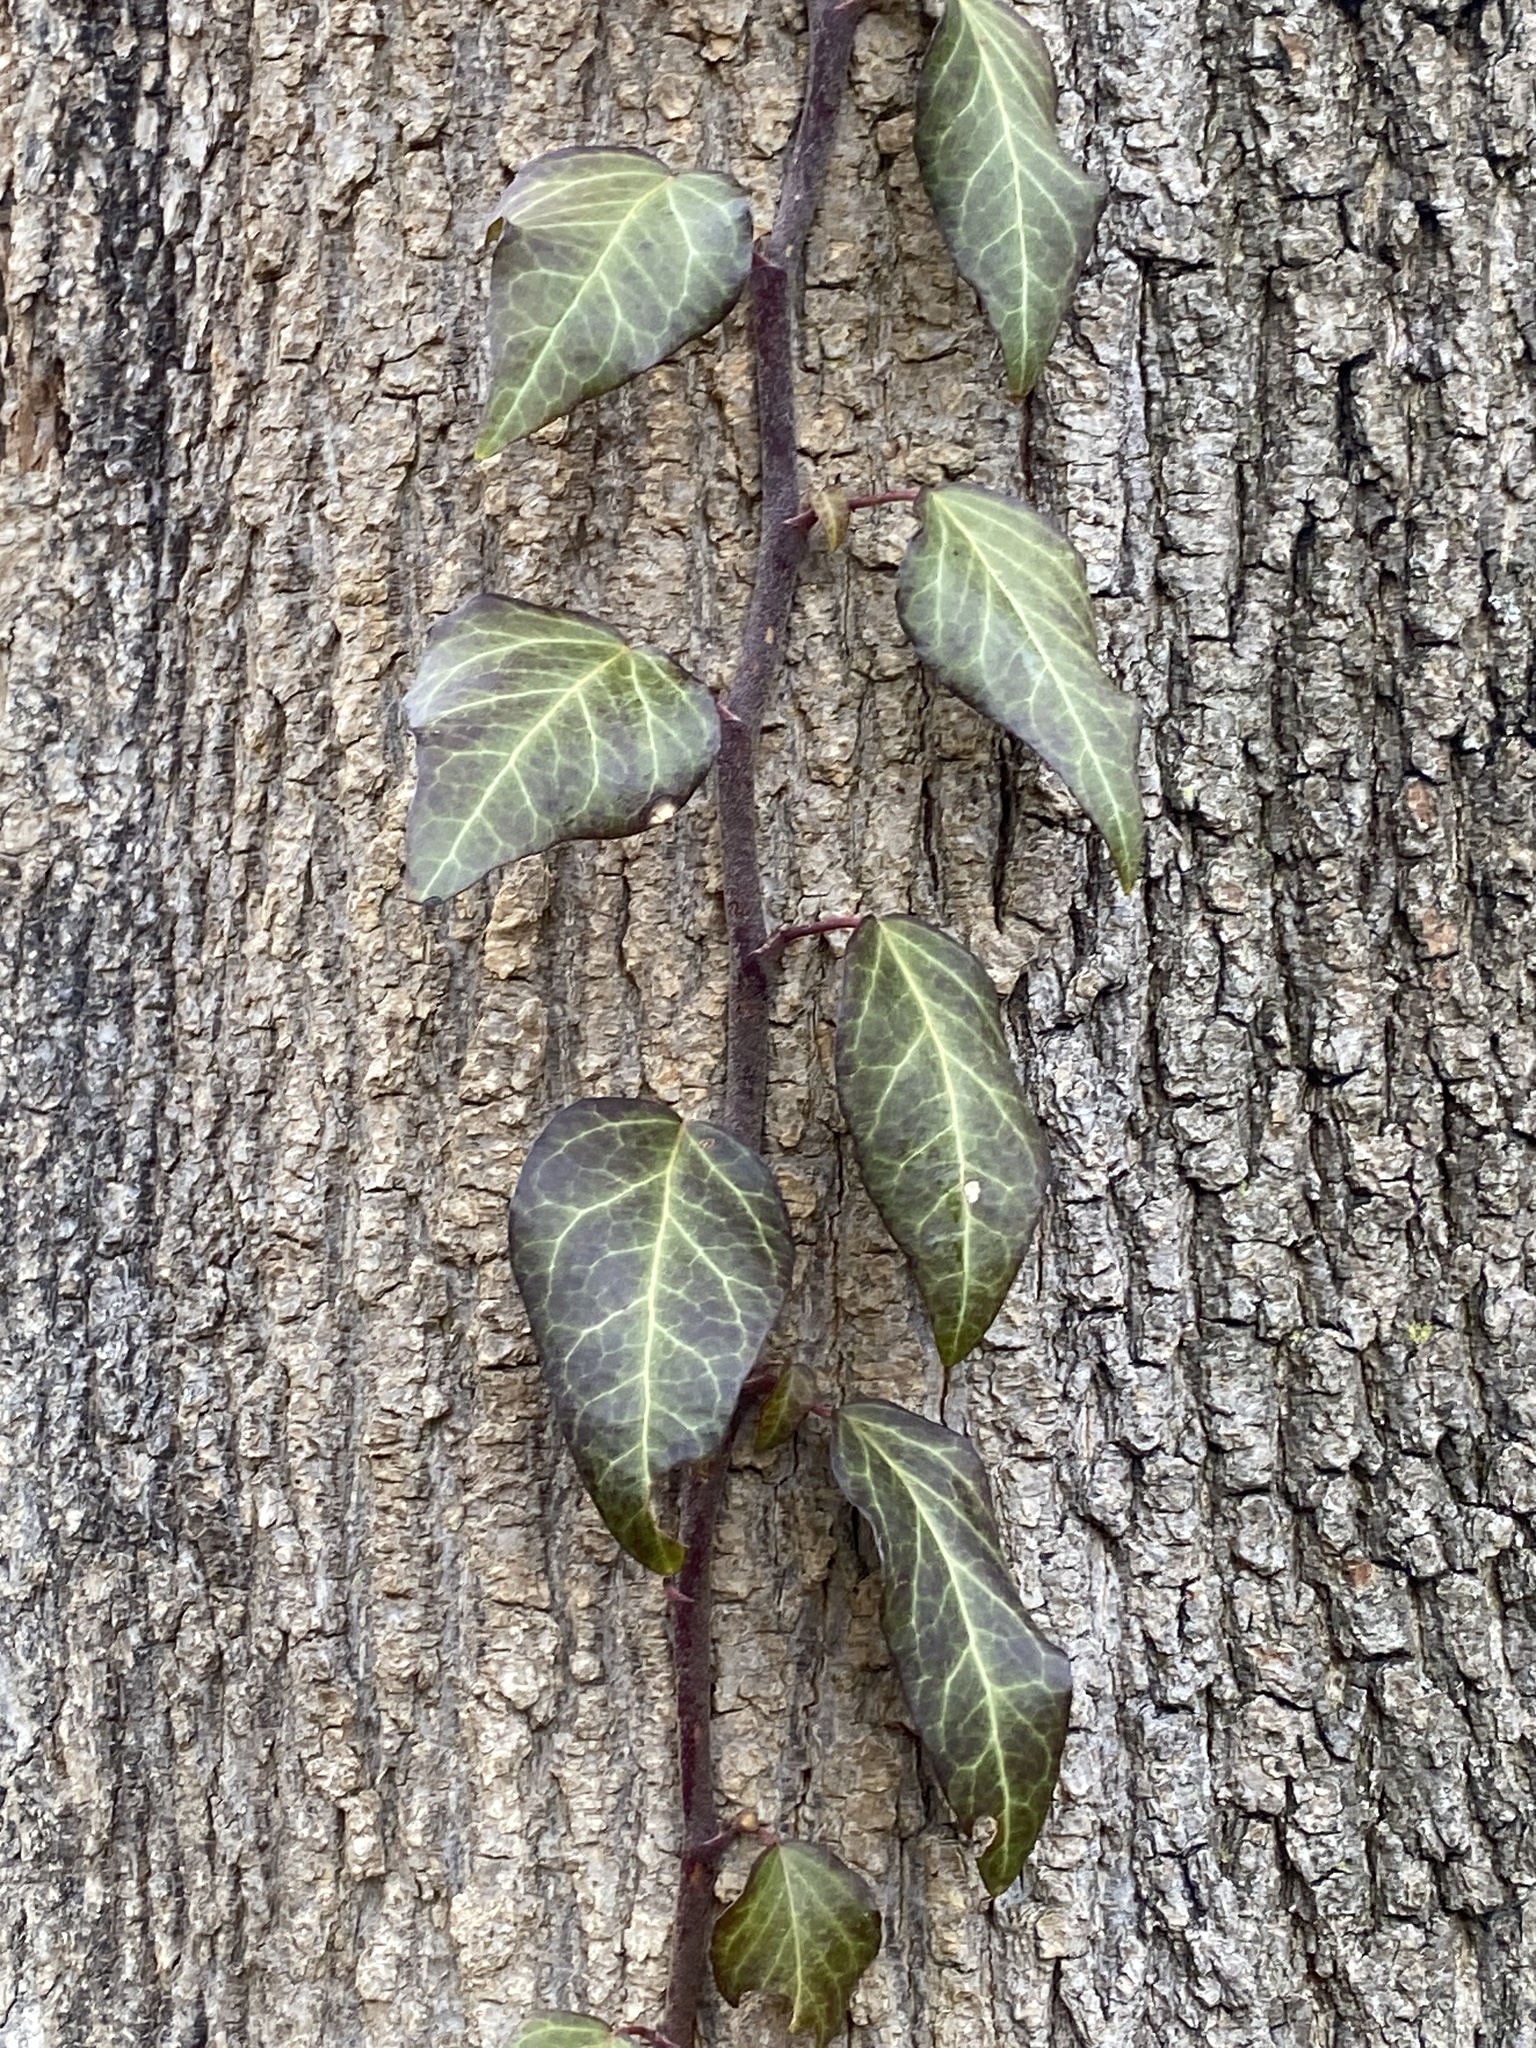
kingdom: Plantae
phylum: Tracheophyta
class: Magnoliopsida
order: Apiales
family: Araliaceae
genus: Hedera
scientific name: Hedera
